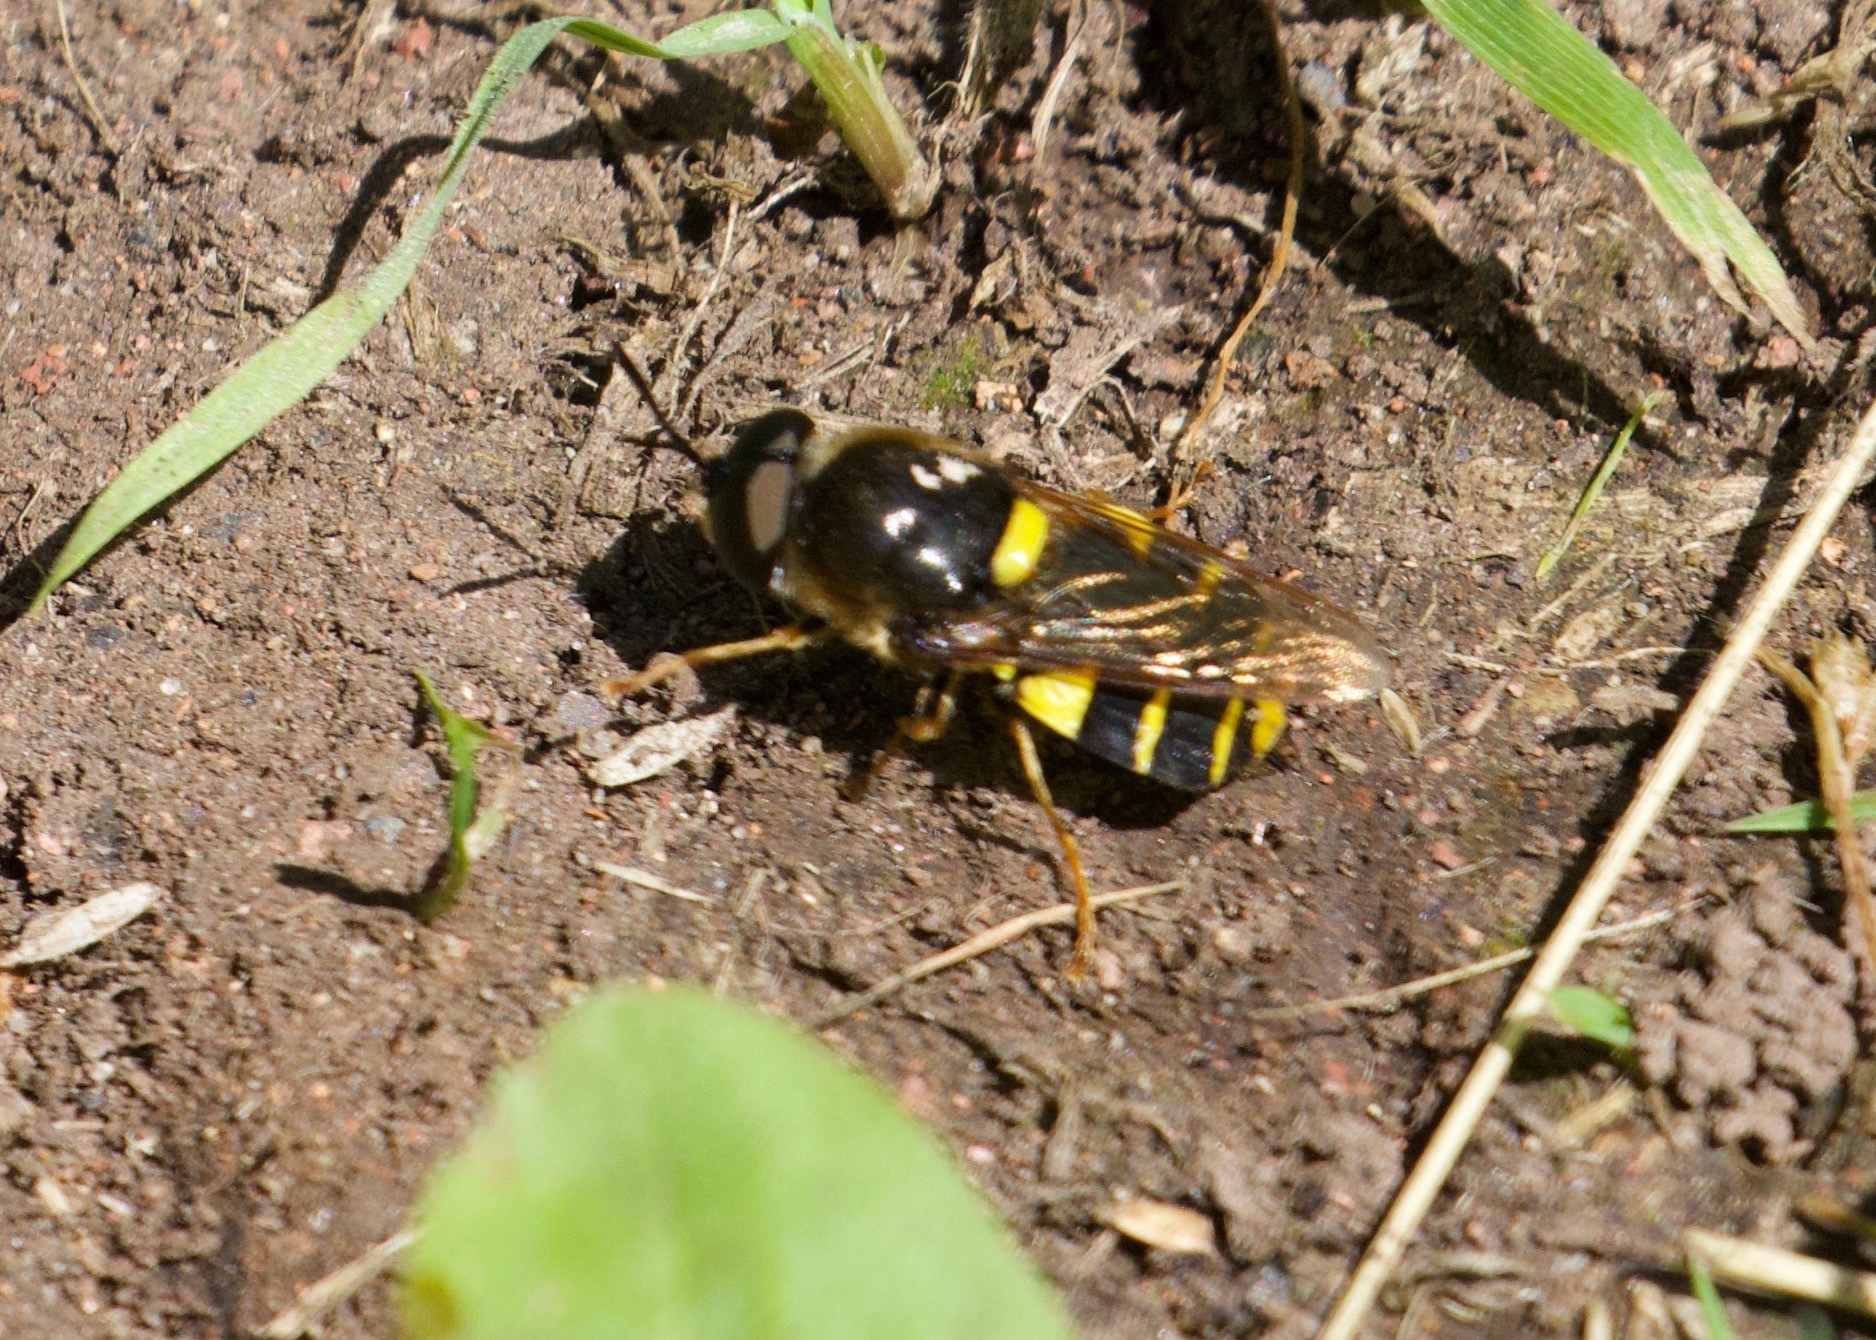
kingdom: Animalia
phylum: Arthropoda
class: Insecta
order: Diptera
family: Stratiomyidae
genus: Stratiomys
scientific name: Stratiomys potamida
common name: Banded general
